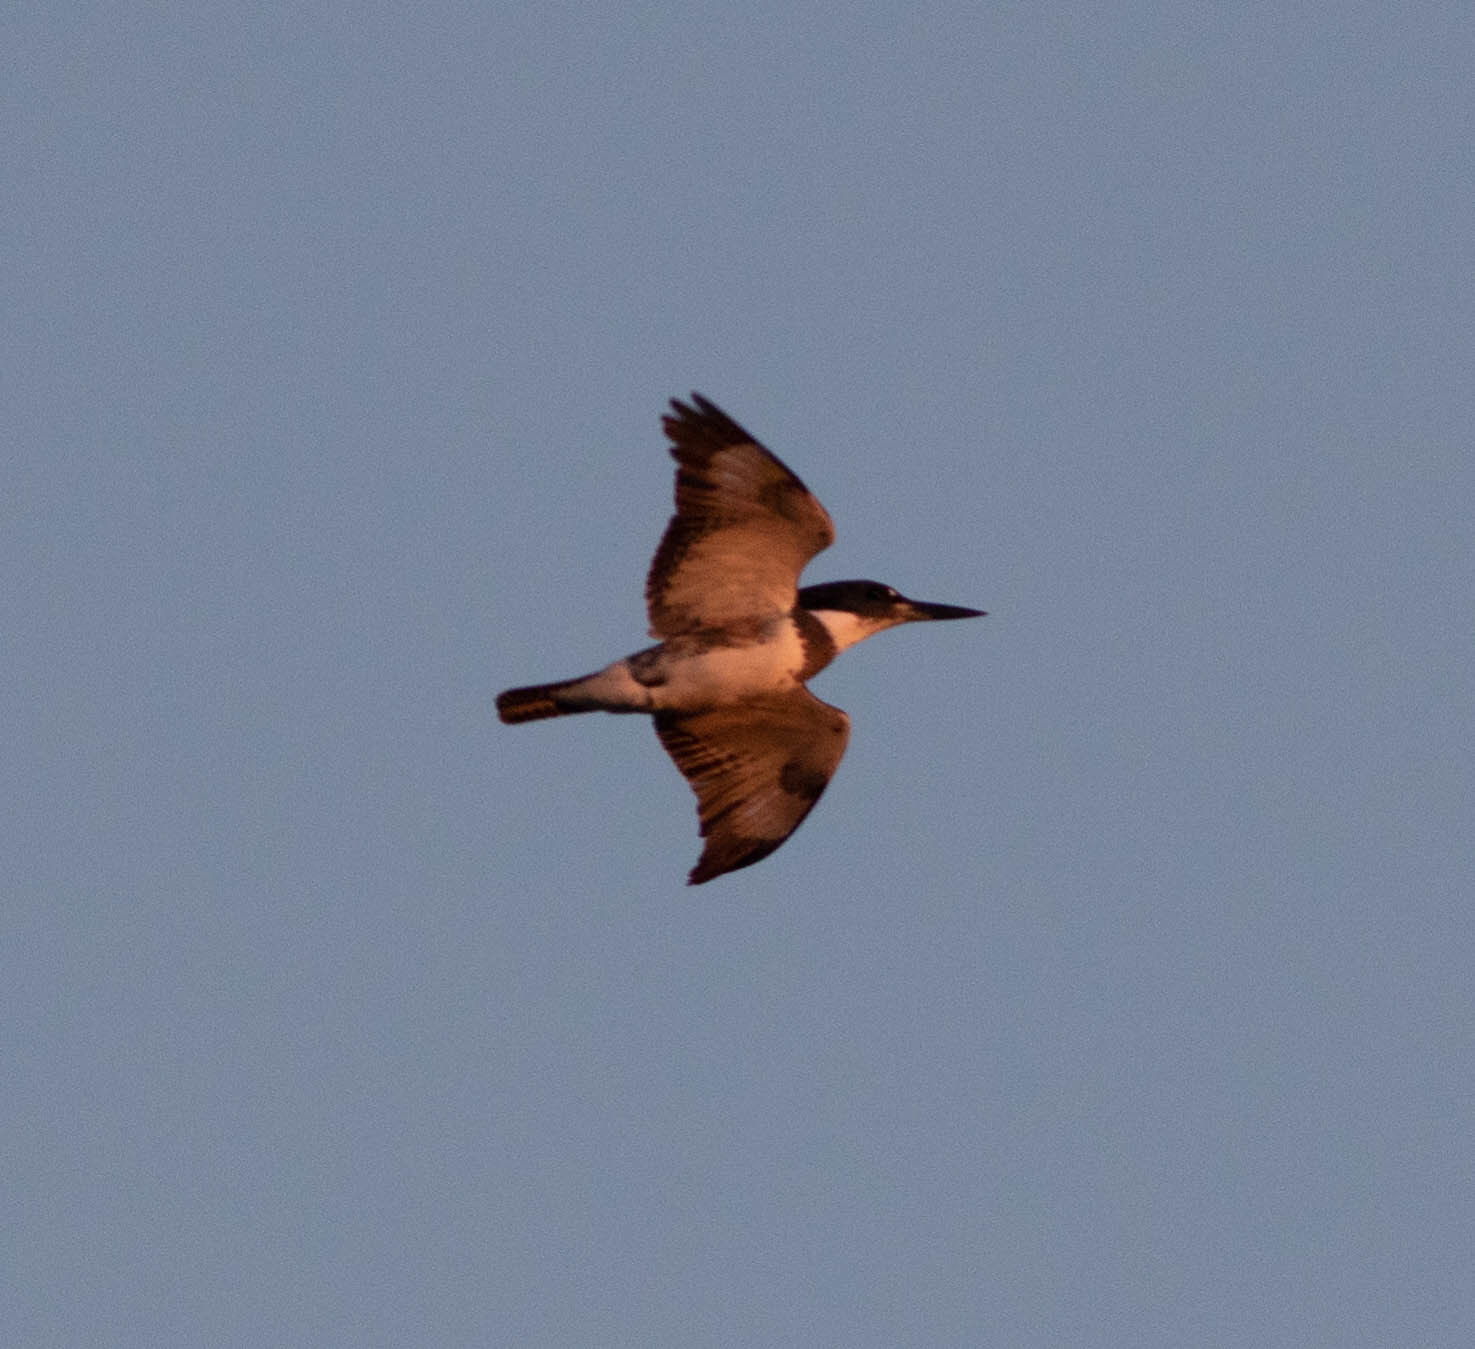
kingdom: Animalia
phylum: Chordata
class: Aves
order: Coraciiformes
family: Alcedinidae
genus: Megaceryle
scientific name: Megaceryle alcyon
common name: Belted kingfisher
